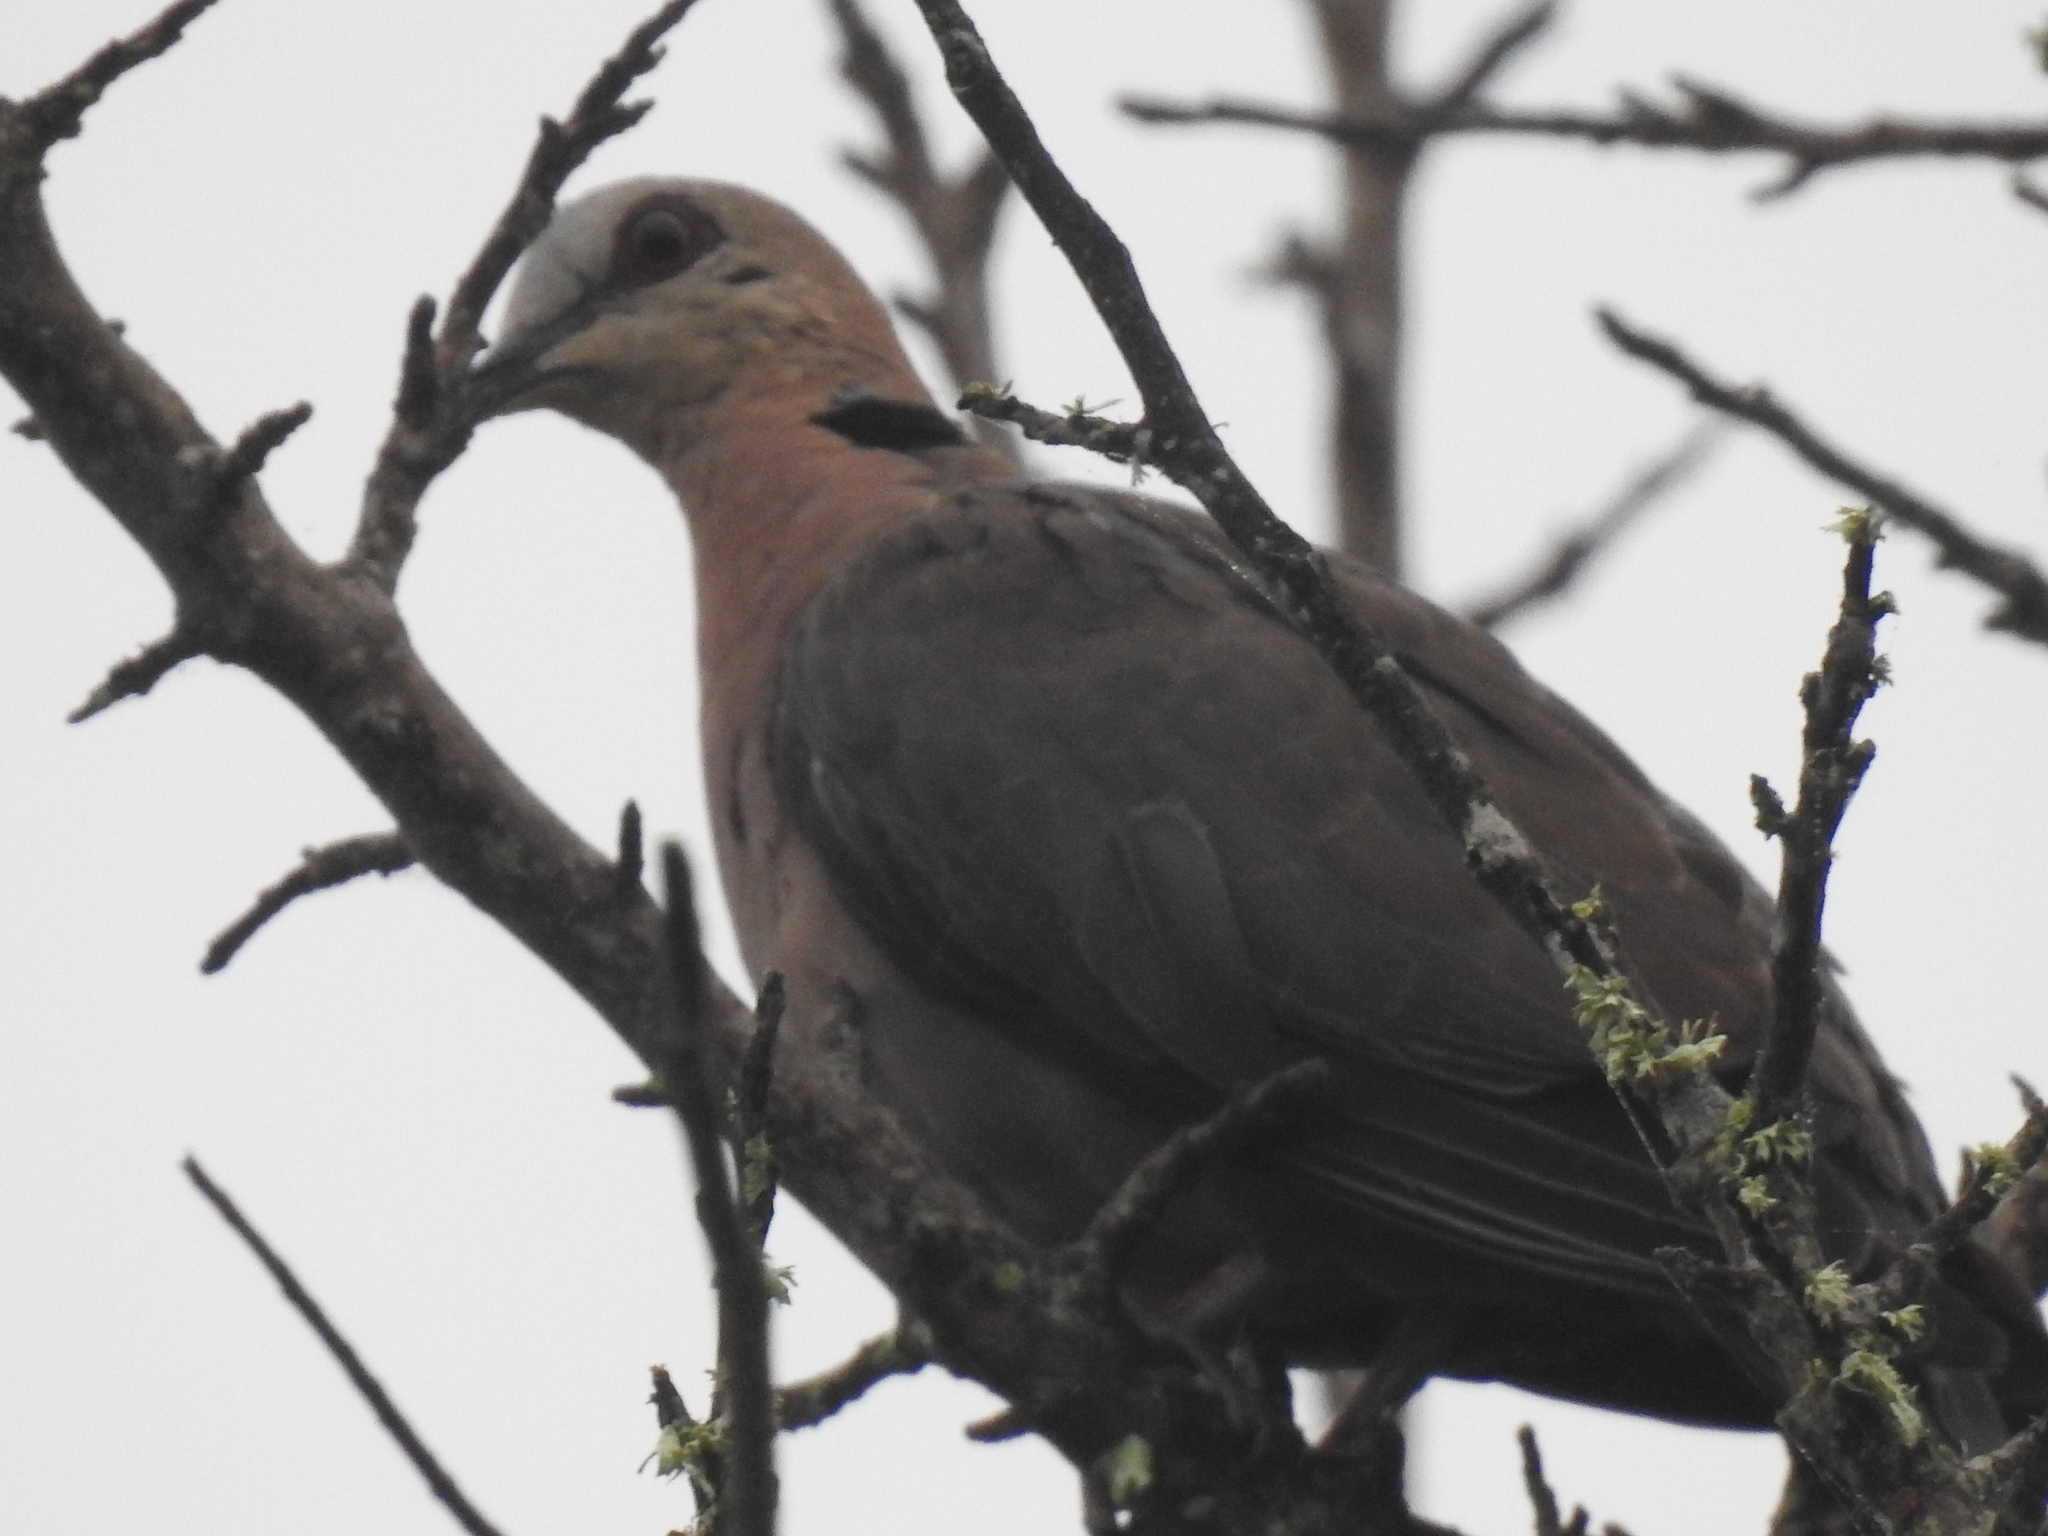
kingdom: Animalia
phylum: Chordata
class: Aves
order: Columbiformes
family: Columbidae
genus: Streptopelia
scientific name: Streptopelia semitorquata
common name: Red-eyed dove
